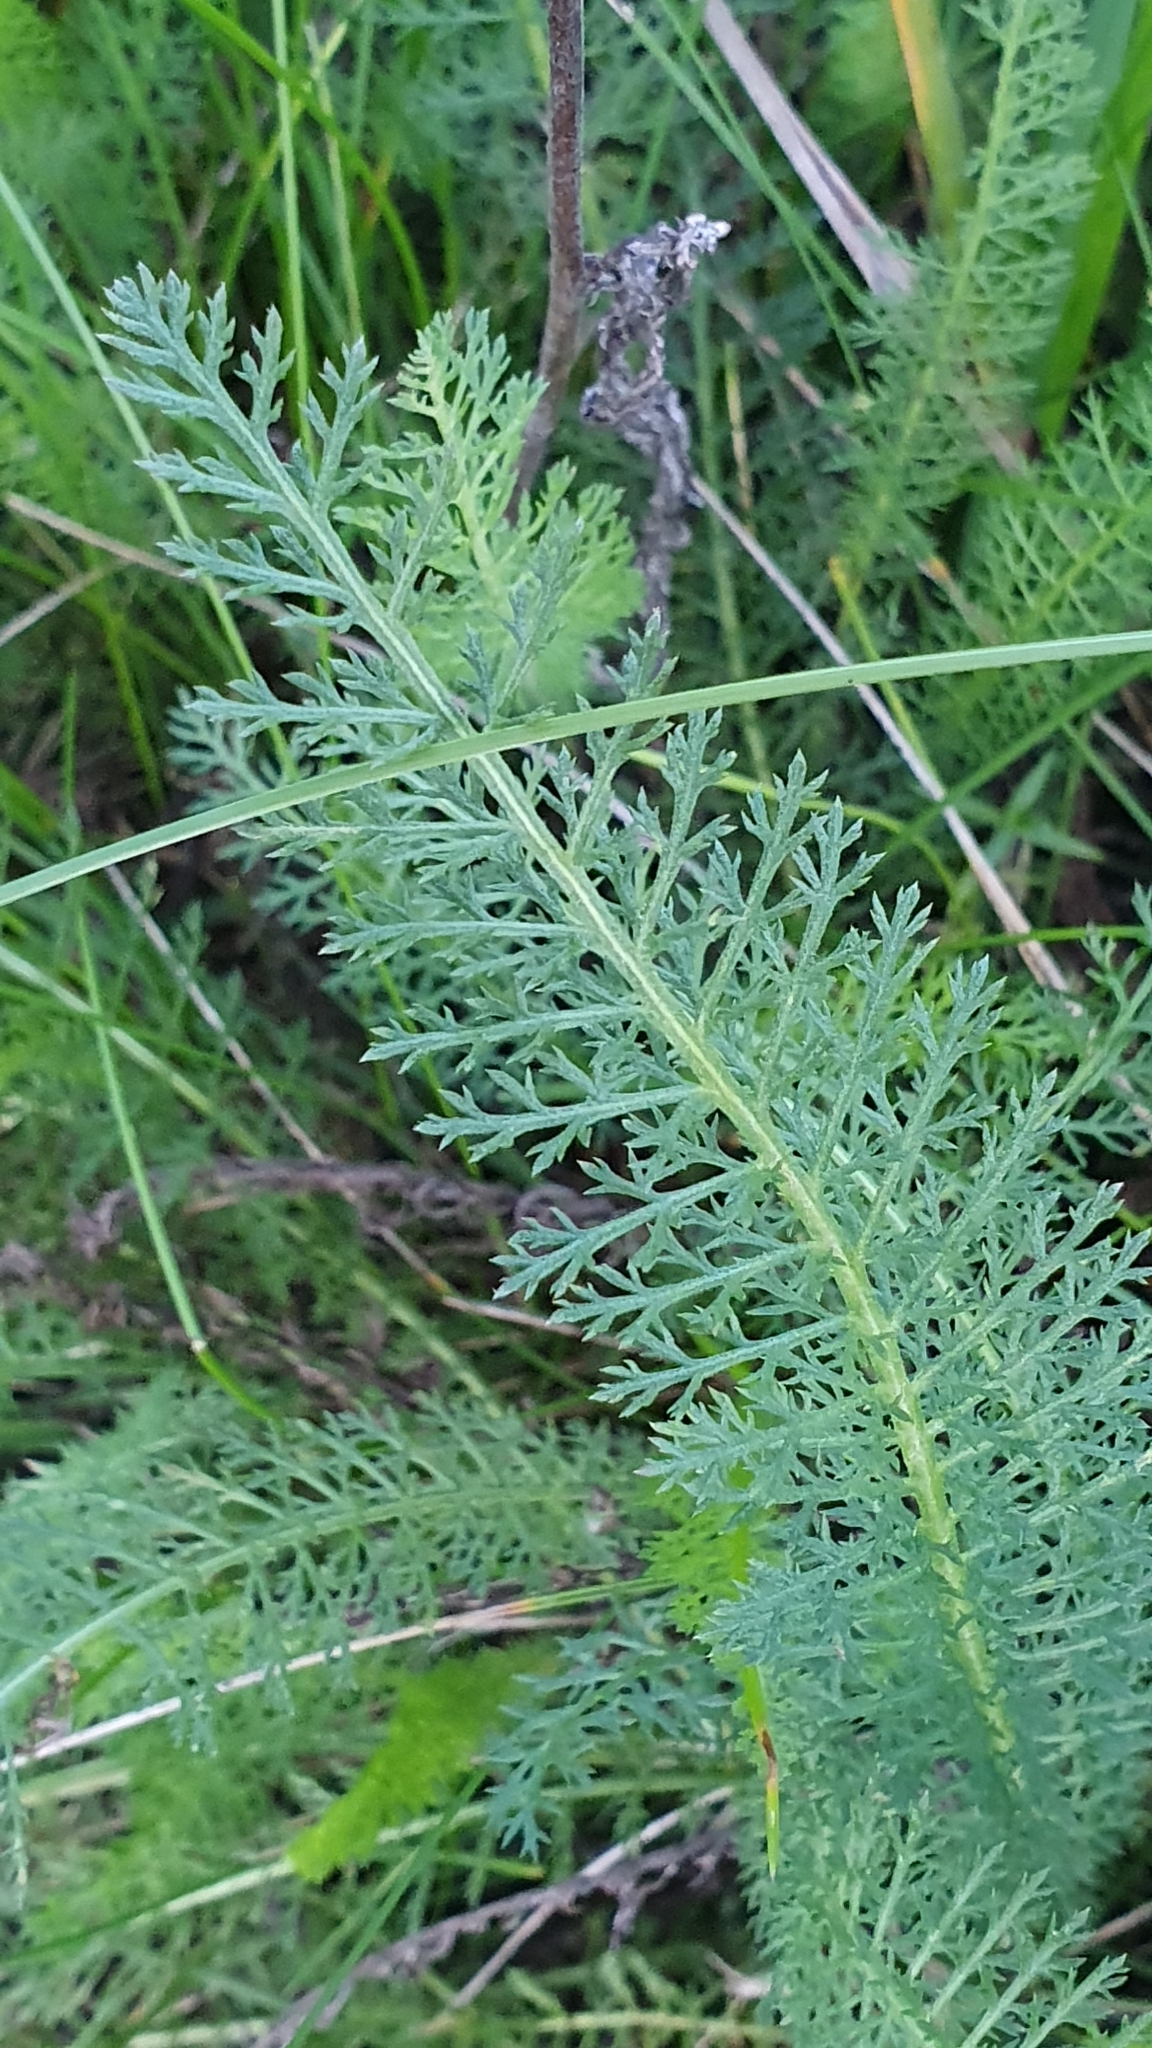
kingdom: Plantae
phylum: Tracheophyta
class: Magnoliopsida
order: Asterales
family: Asteraceae
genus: Achillea
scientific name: Achillea millefolium
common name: Yarrow
